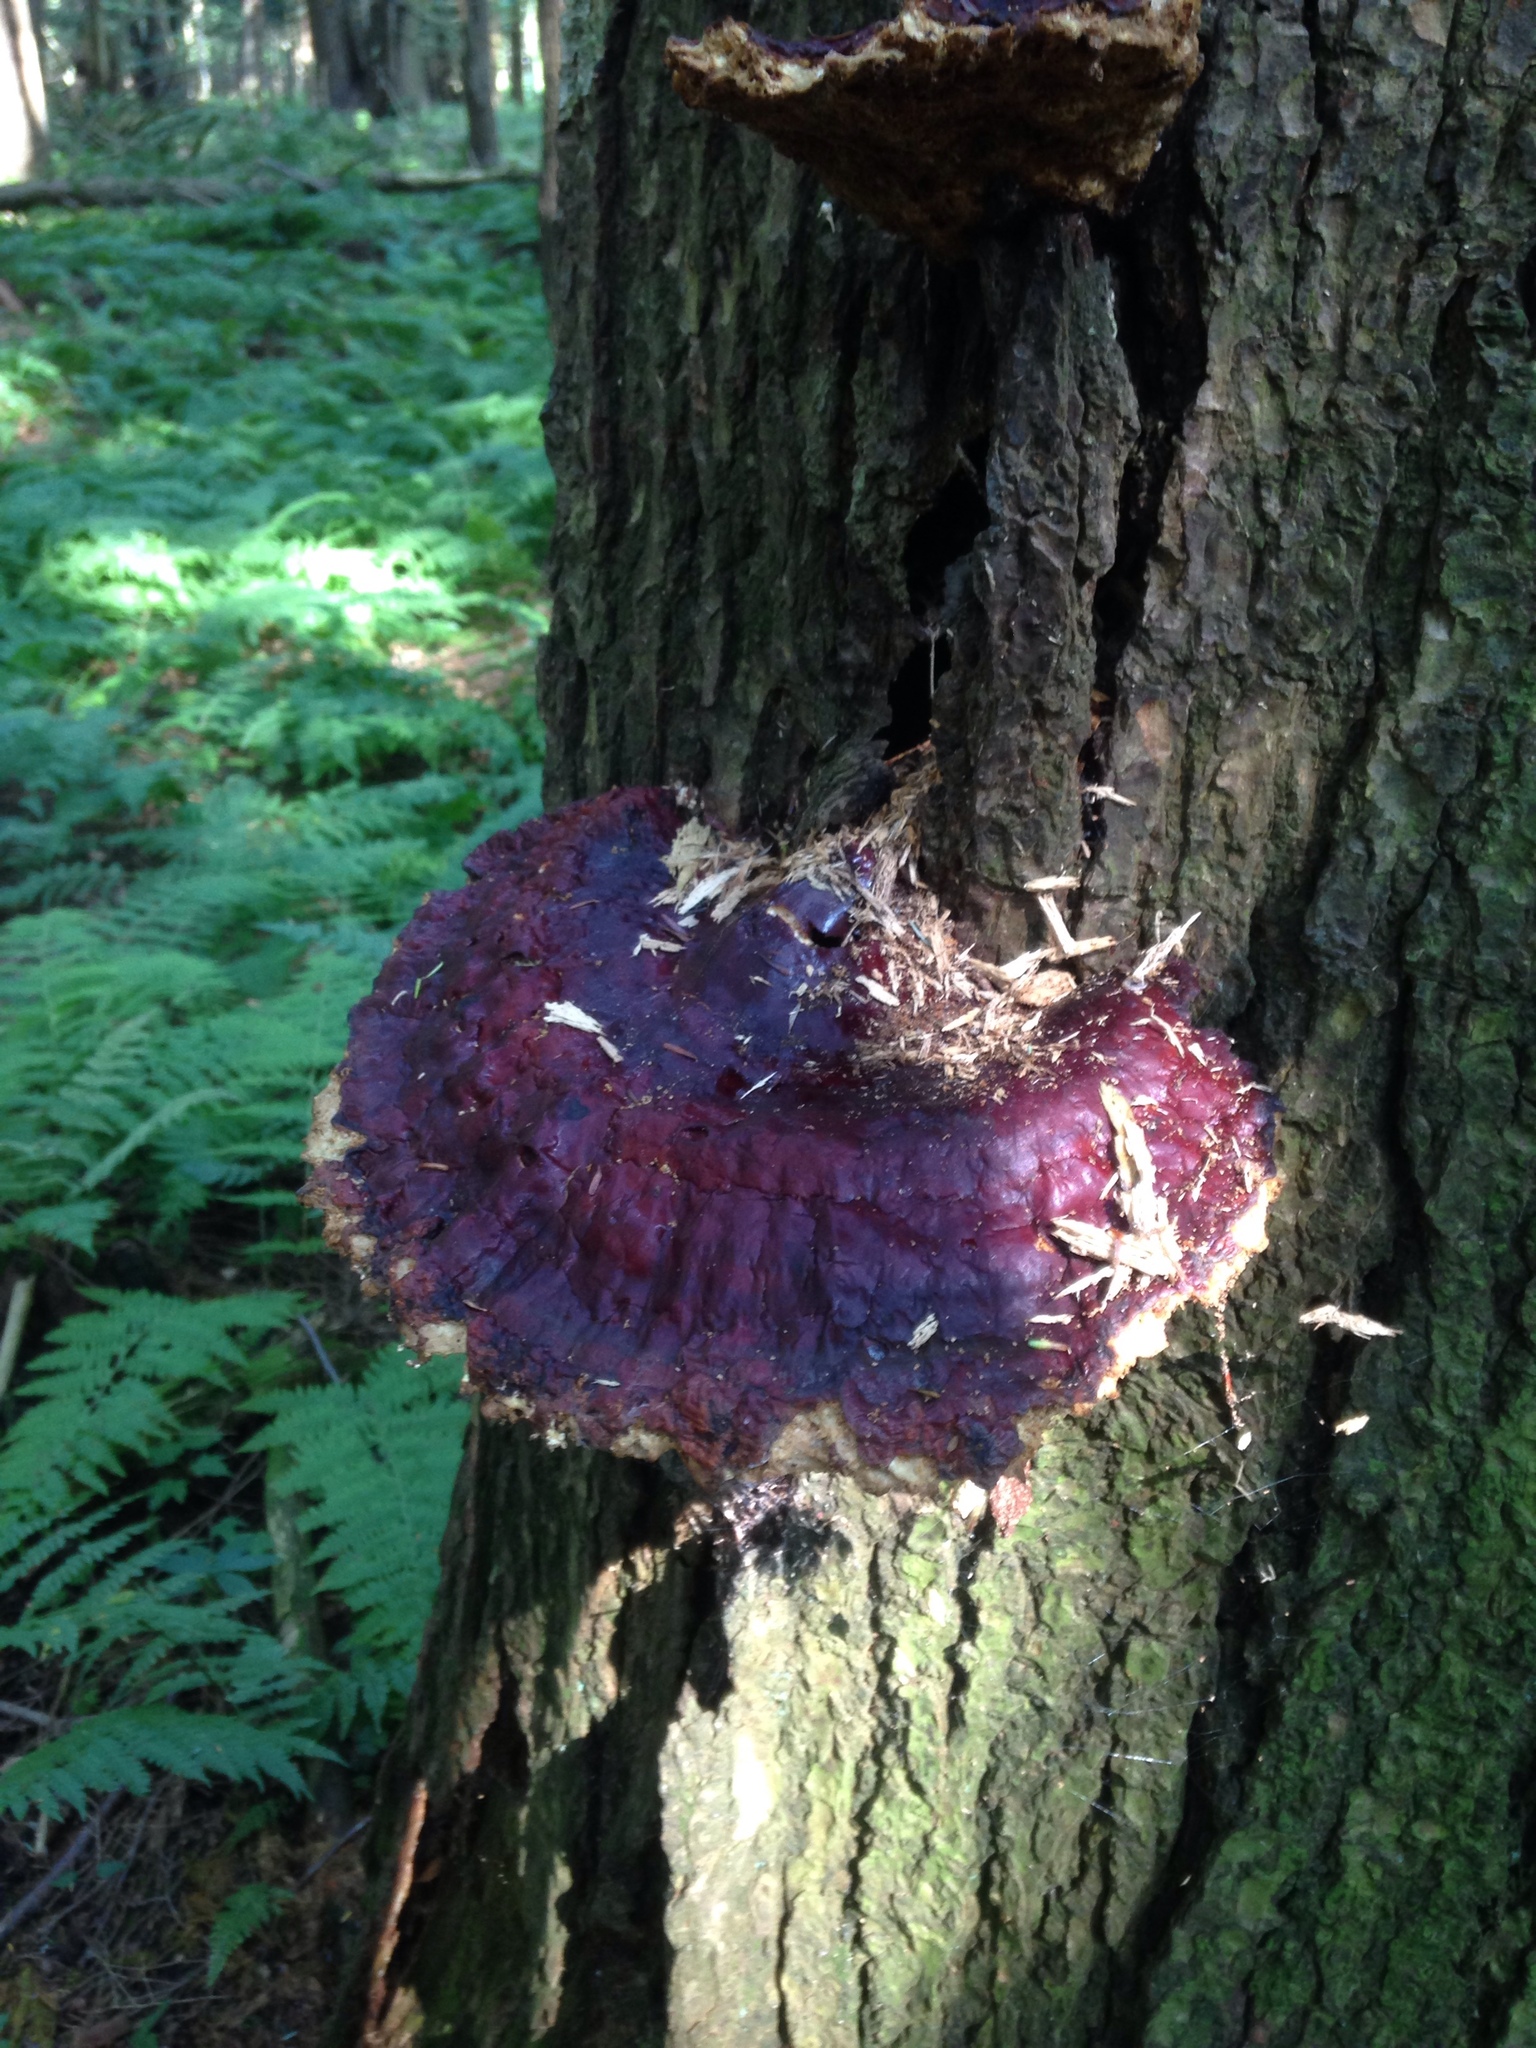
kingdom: Fungi
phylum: Basidiomycota
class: Agaricomycetes
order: Polyporales
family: Polyporaceae
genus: Ganoderma
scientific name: Ganoderma tsugae
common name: Hemlock varnish shelf
